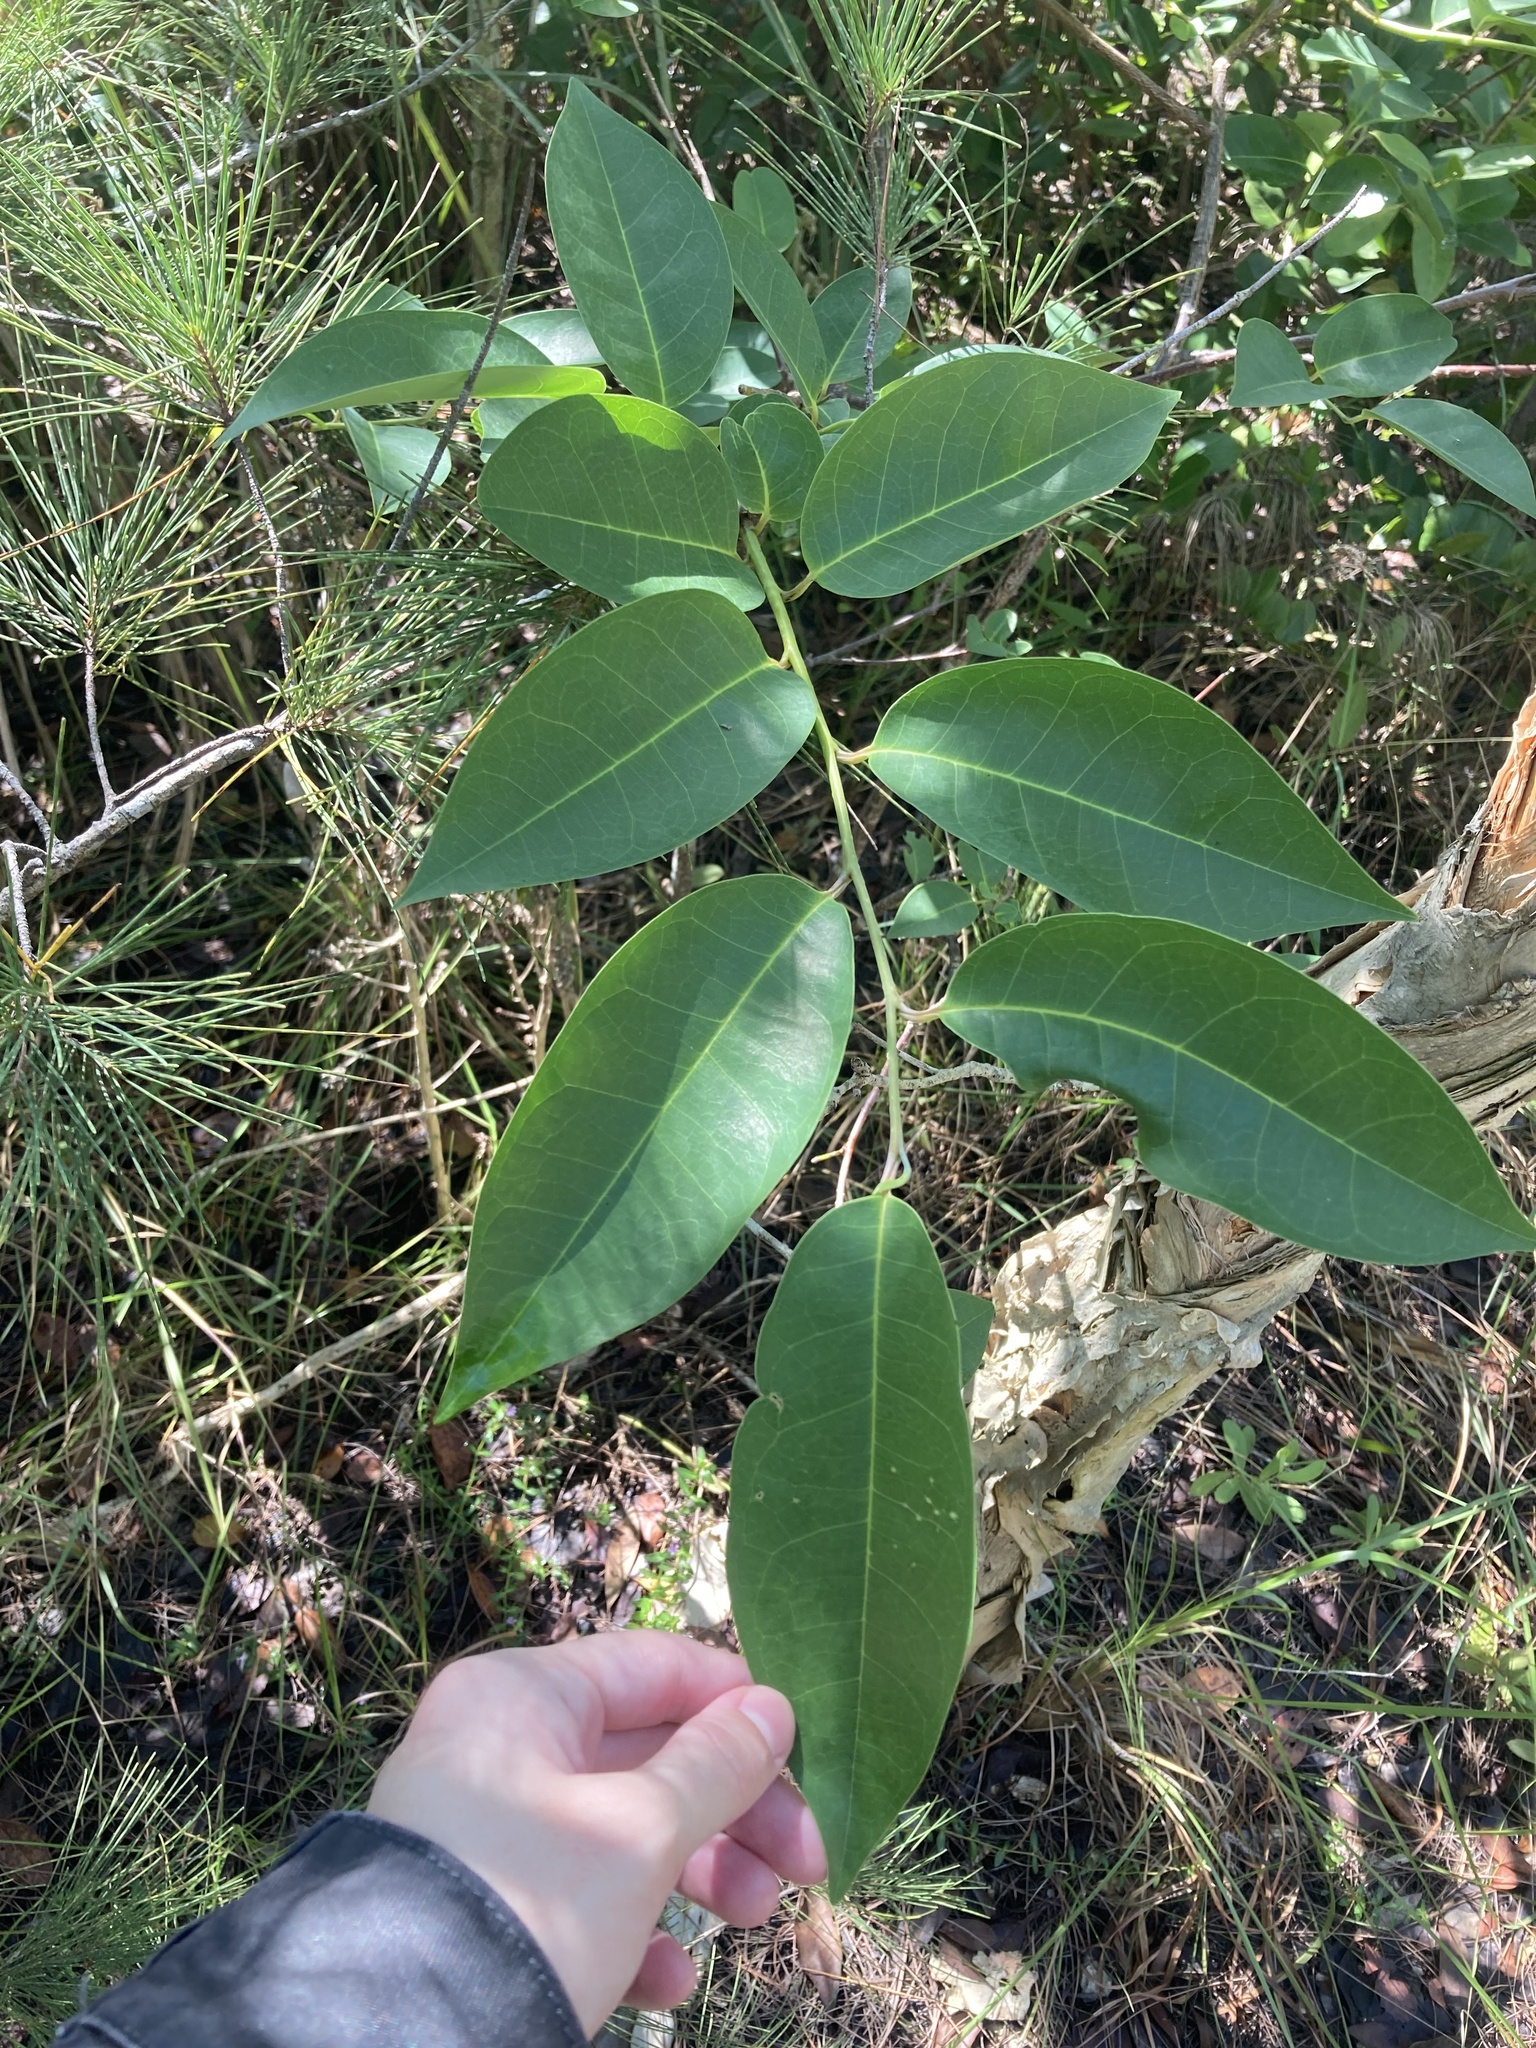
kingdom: Plantae
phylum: Tracheophyta
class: Magnoliopsida
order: Magnoliales
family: Annonaceae
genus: Annona
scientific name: Annona glabra
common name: Monkey apple
